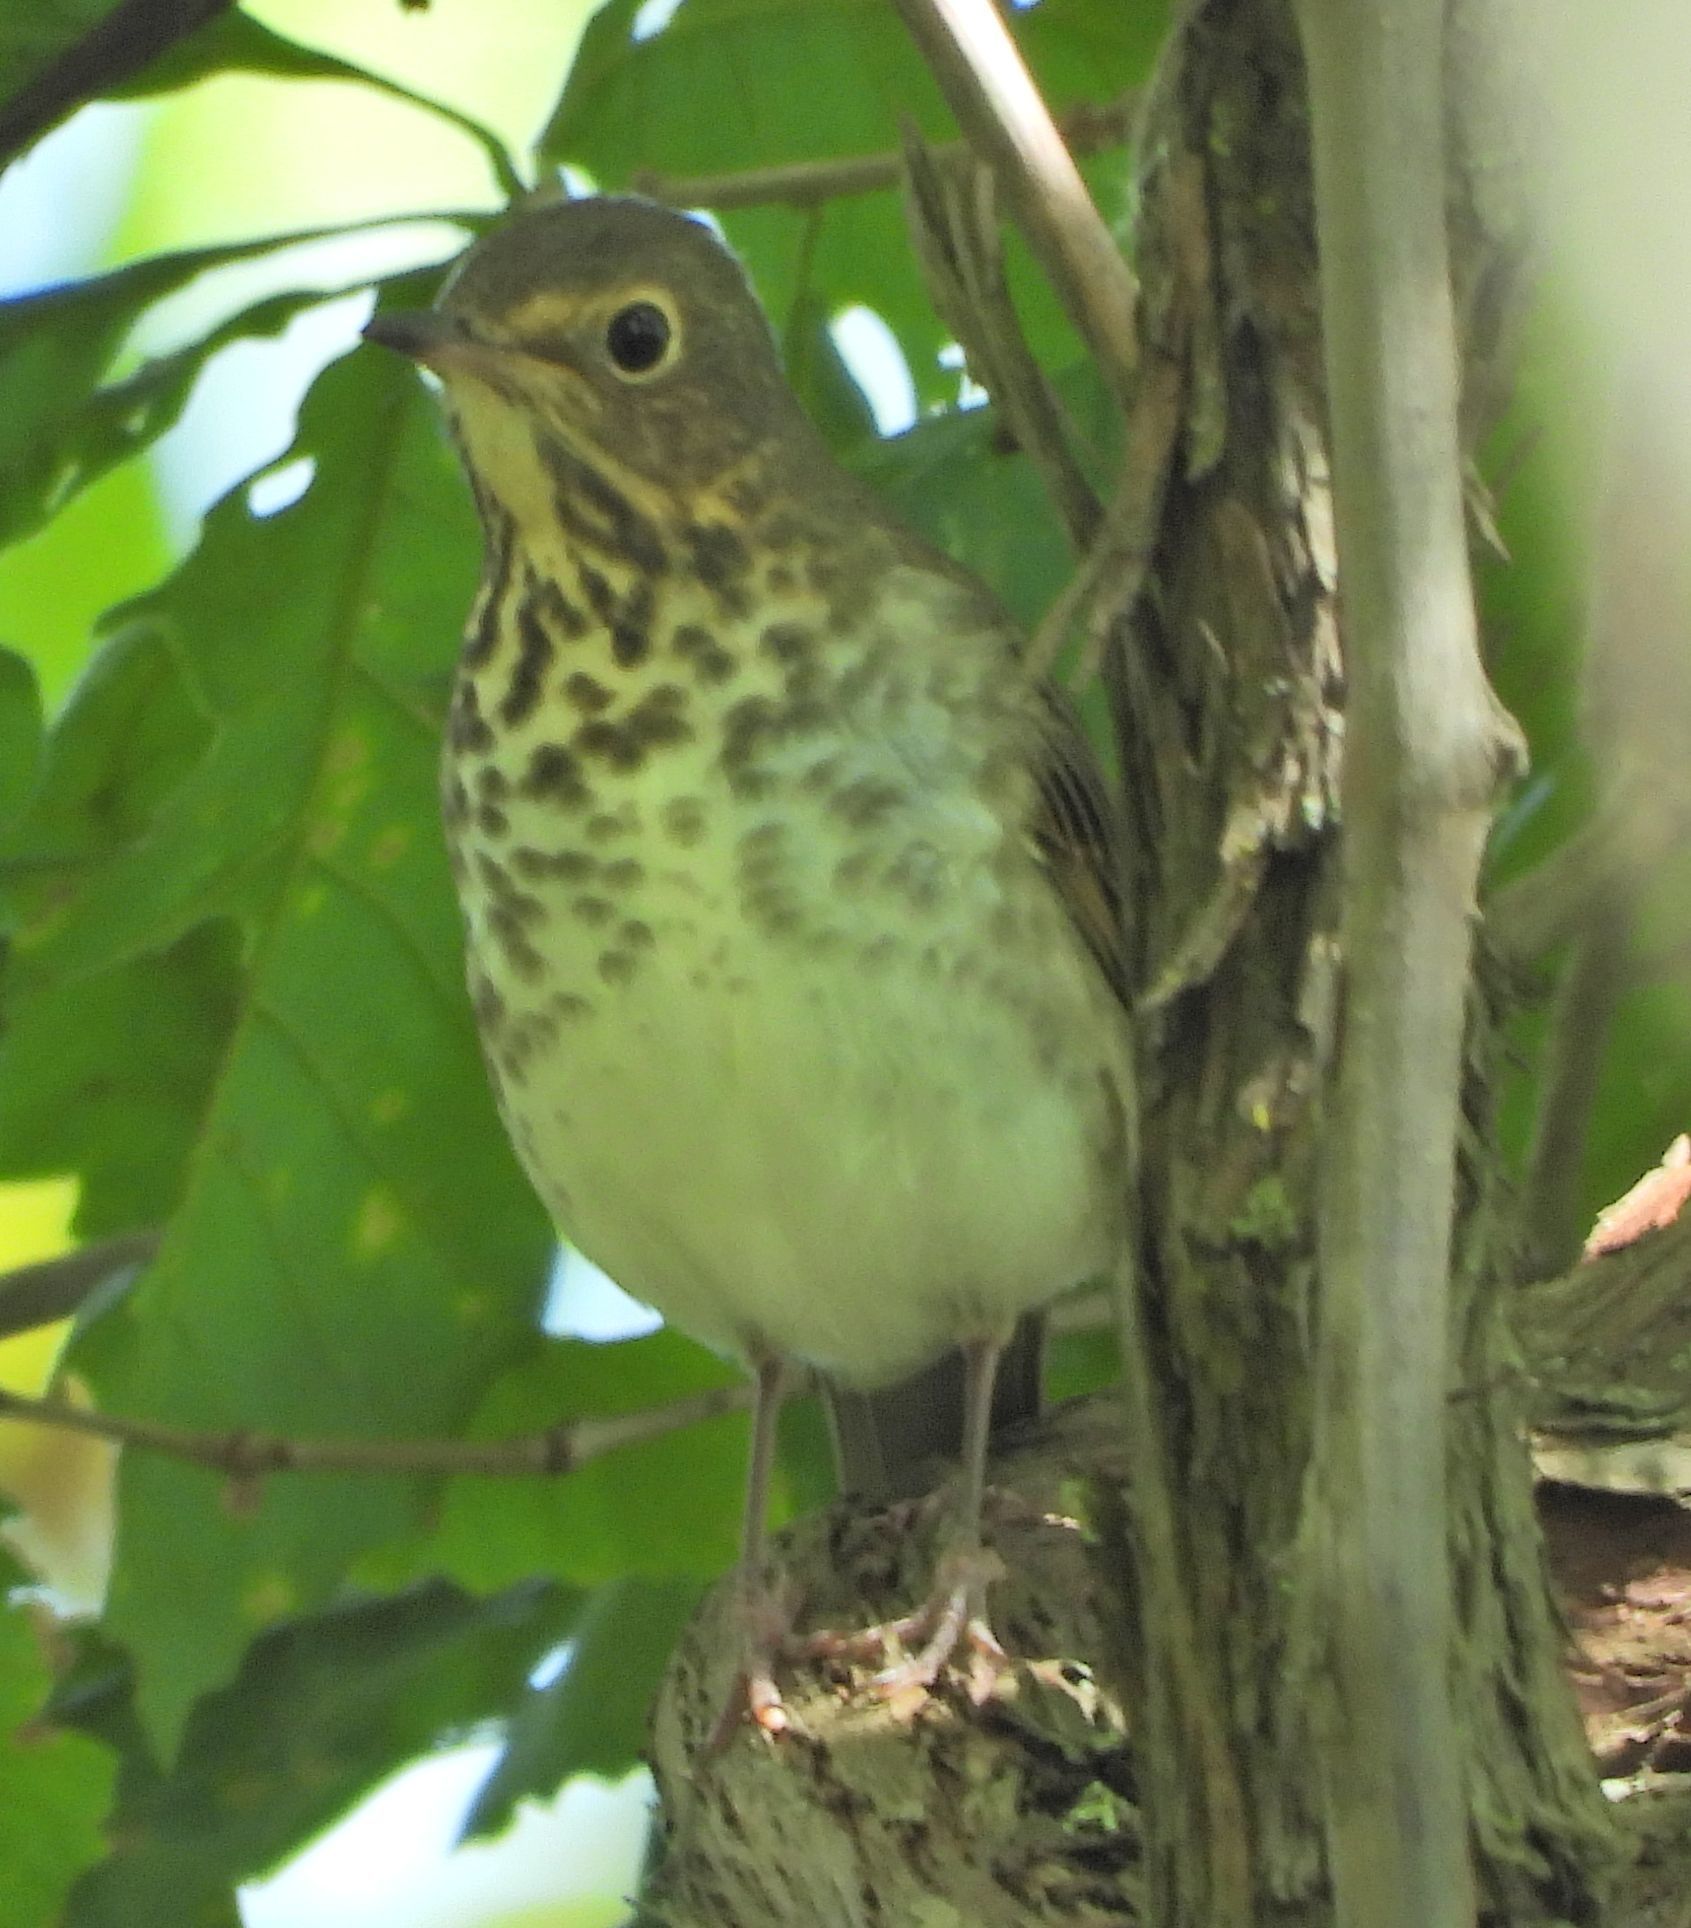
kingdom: Animalia
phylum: Chordata
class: Aves
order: Passeriformes
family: Turdidae
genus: Catharus
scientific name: Catharus ustulatus
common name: Swainson's thrush
